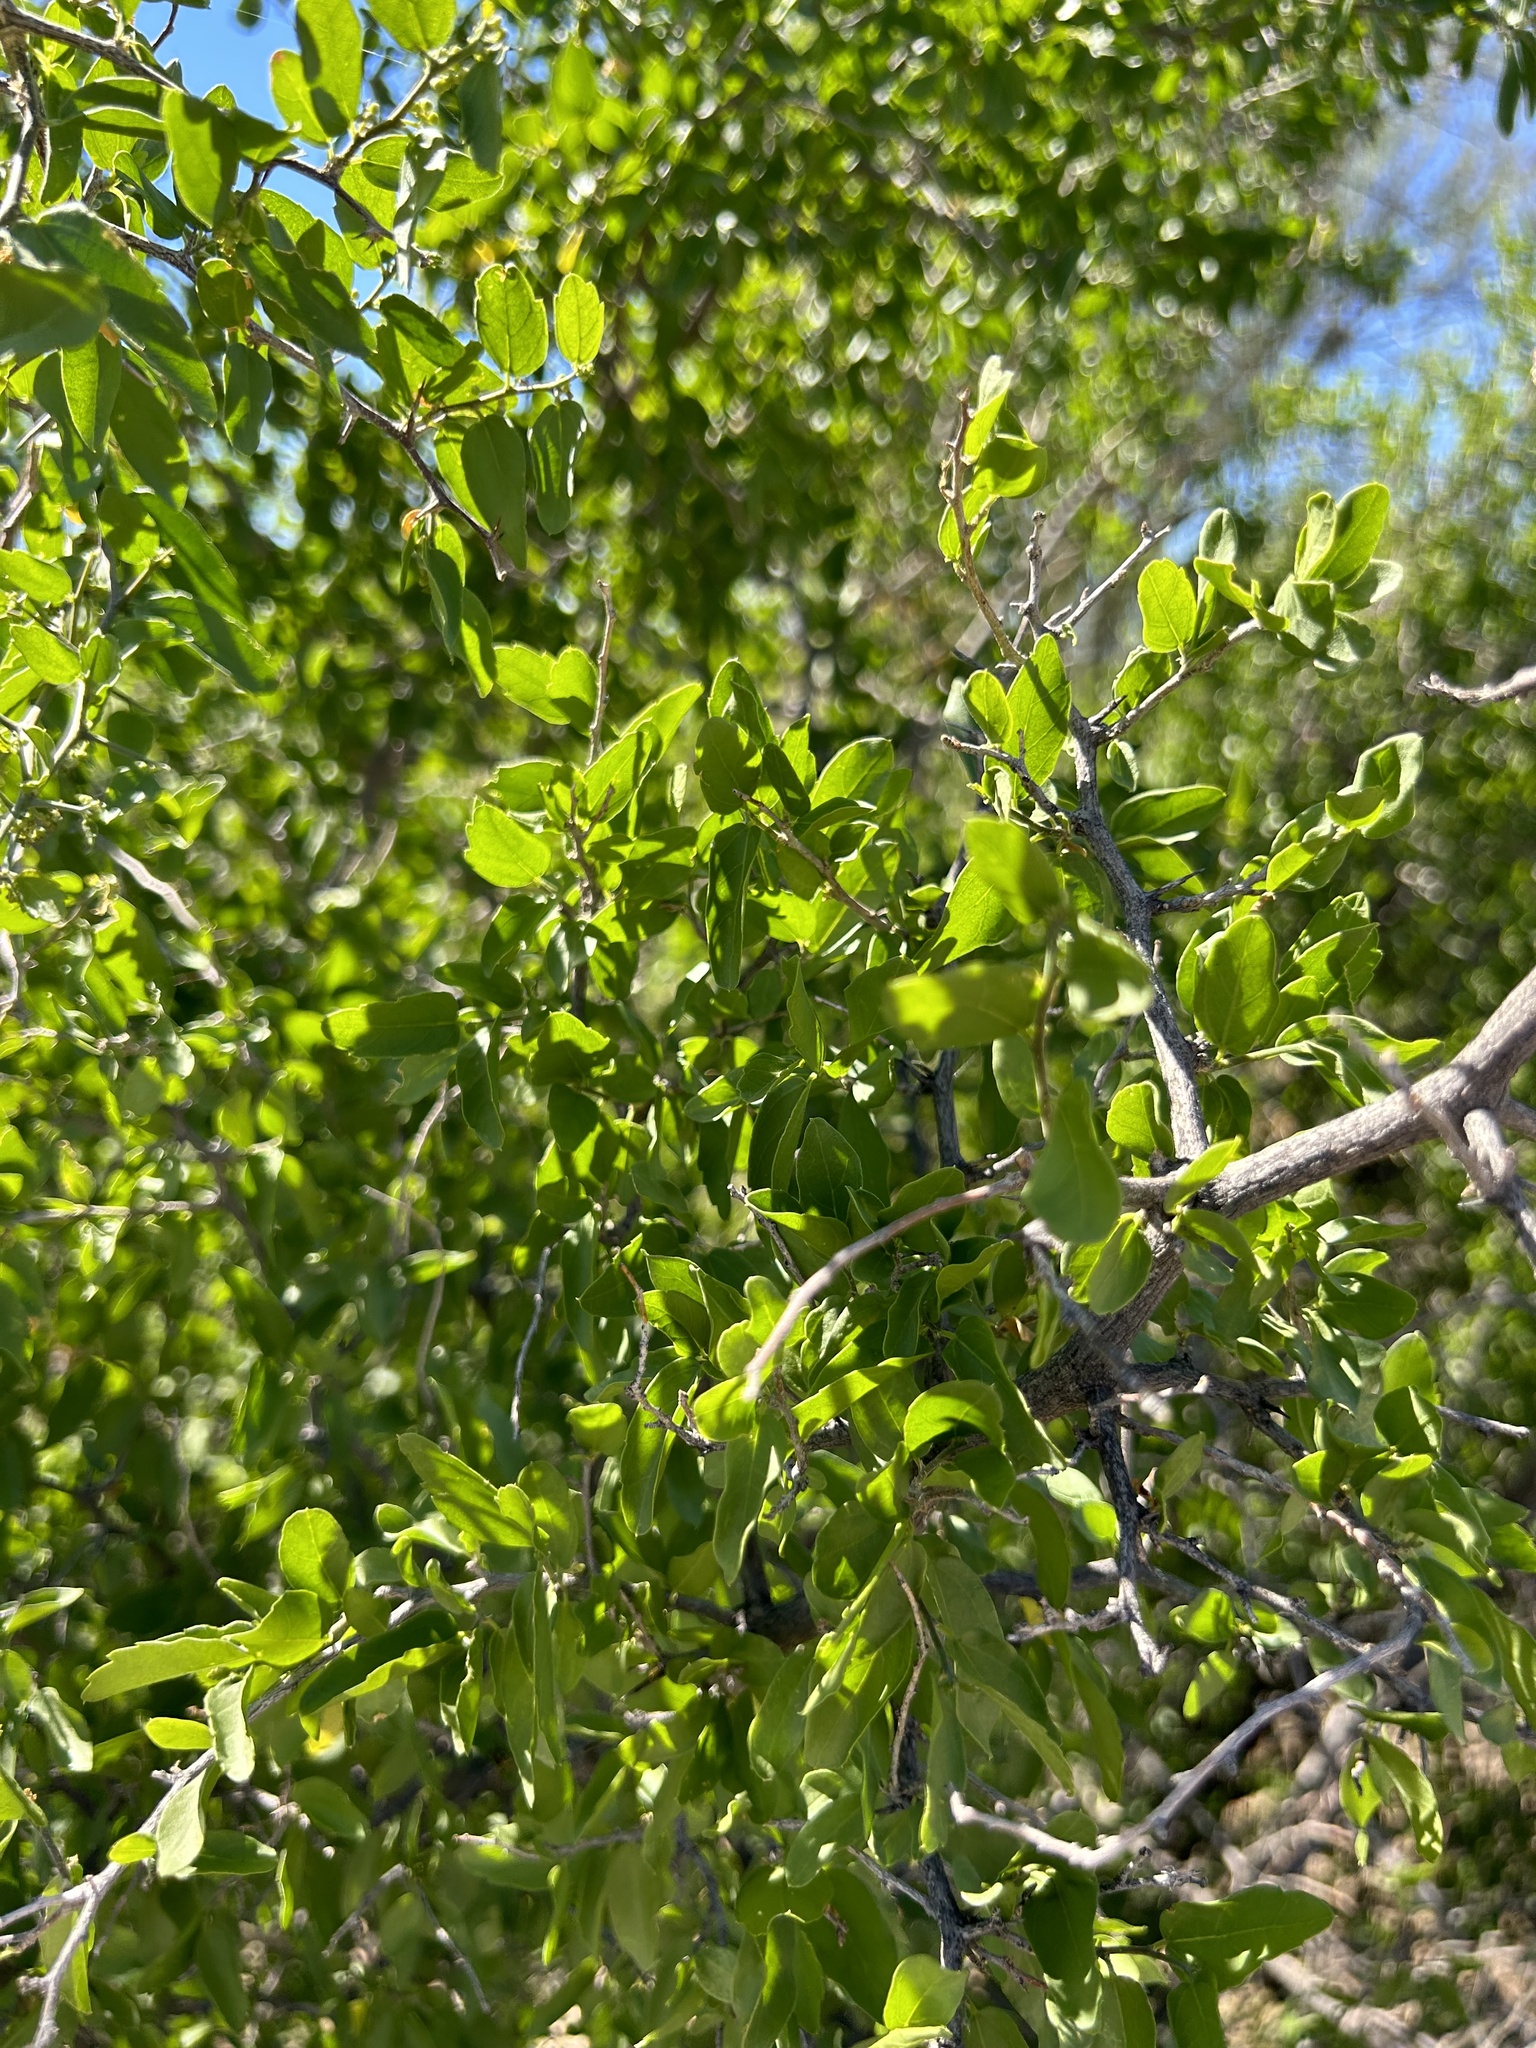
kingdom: Plantae
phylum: Tracheophyta
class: Magnoliopsida
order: Rosales
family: Cannabaceae
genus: Celtis
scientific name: Celtis pallida
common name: Desert hackberry
